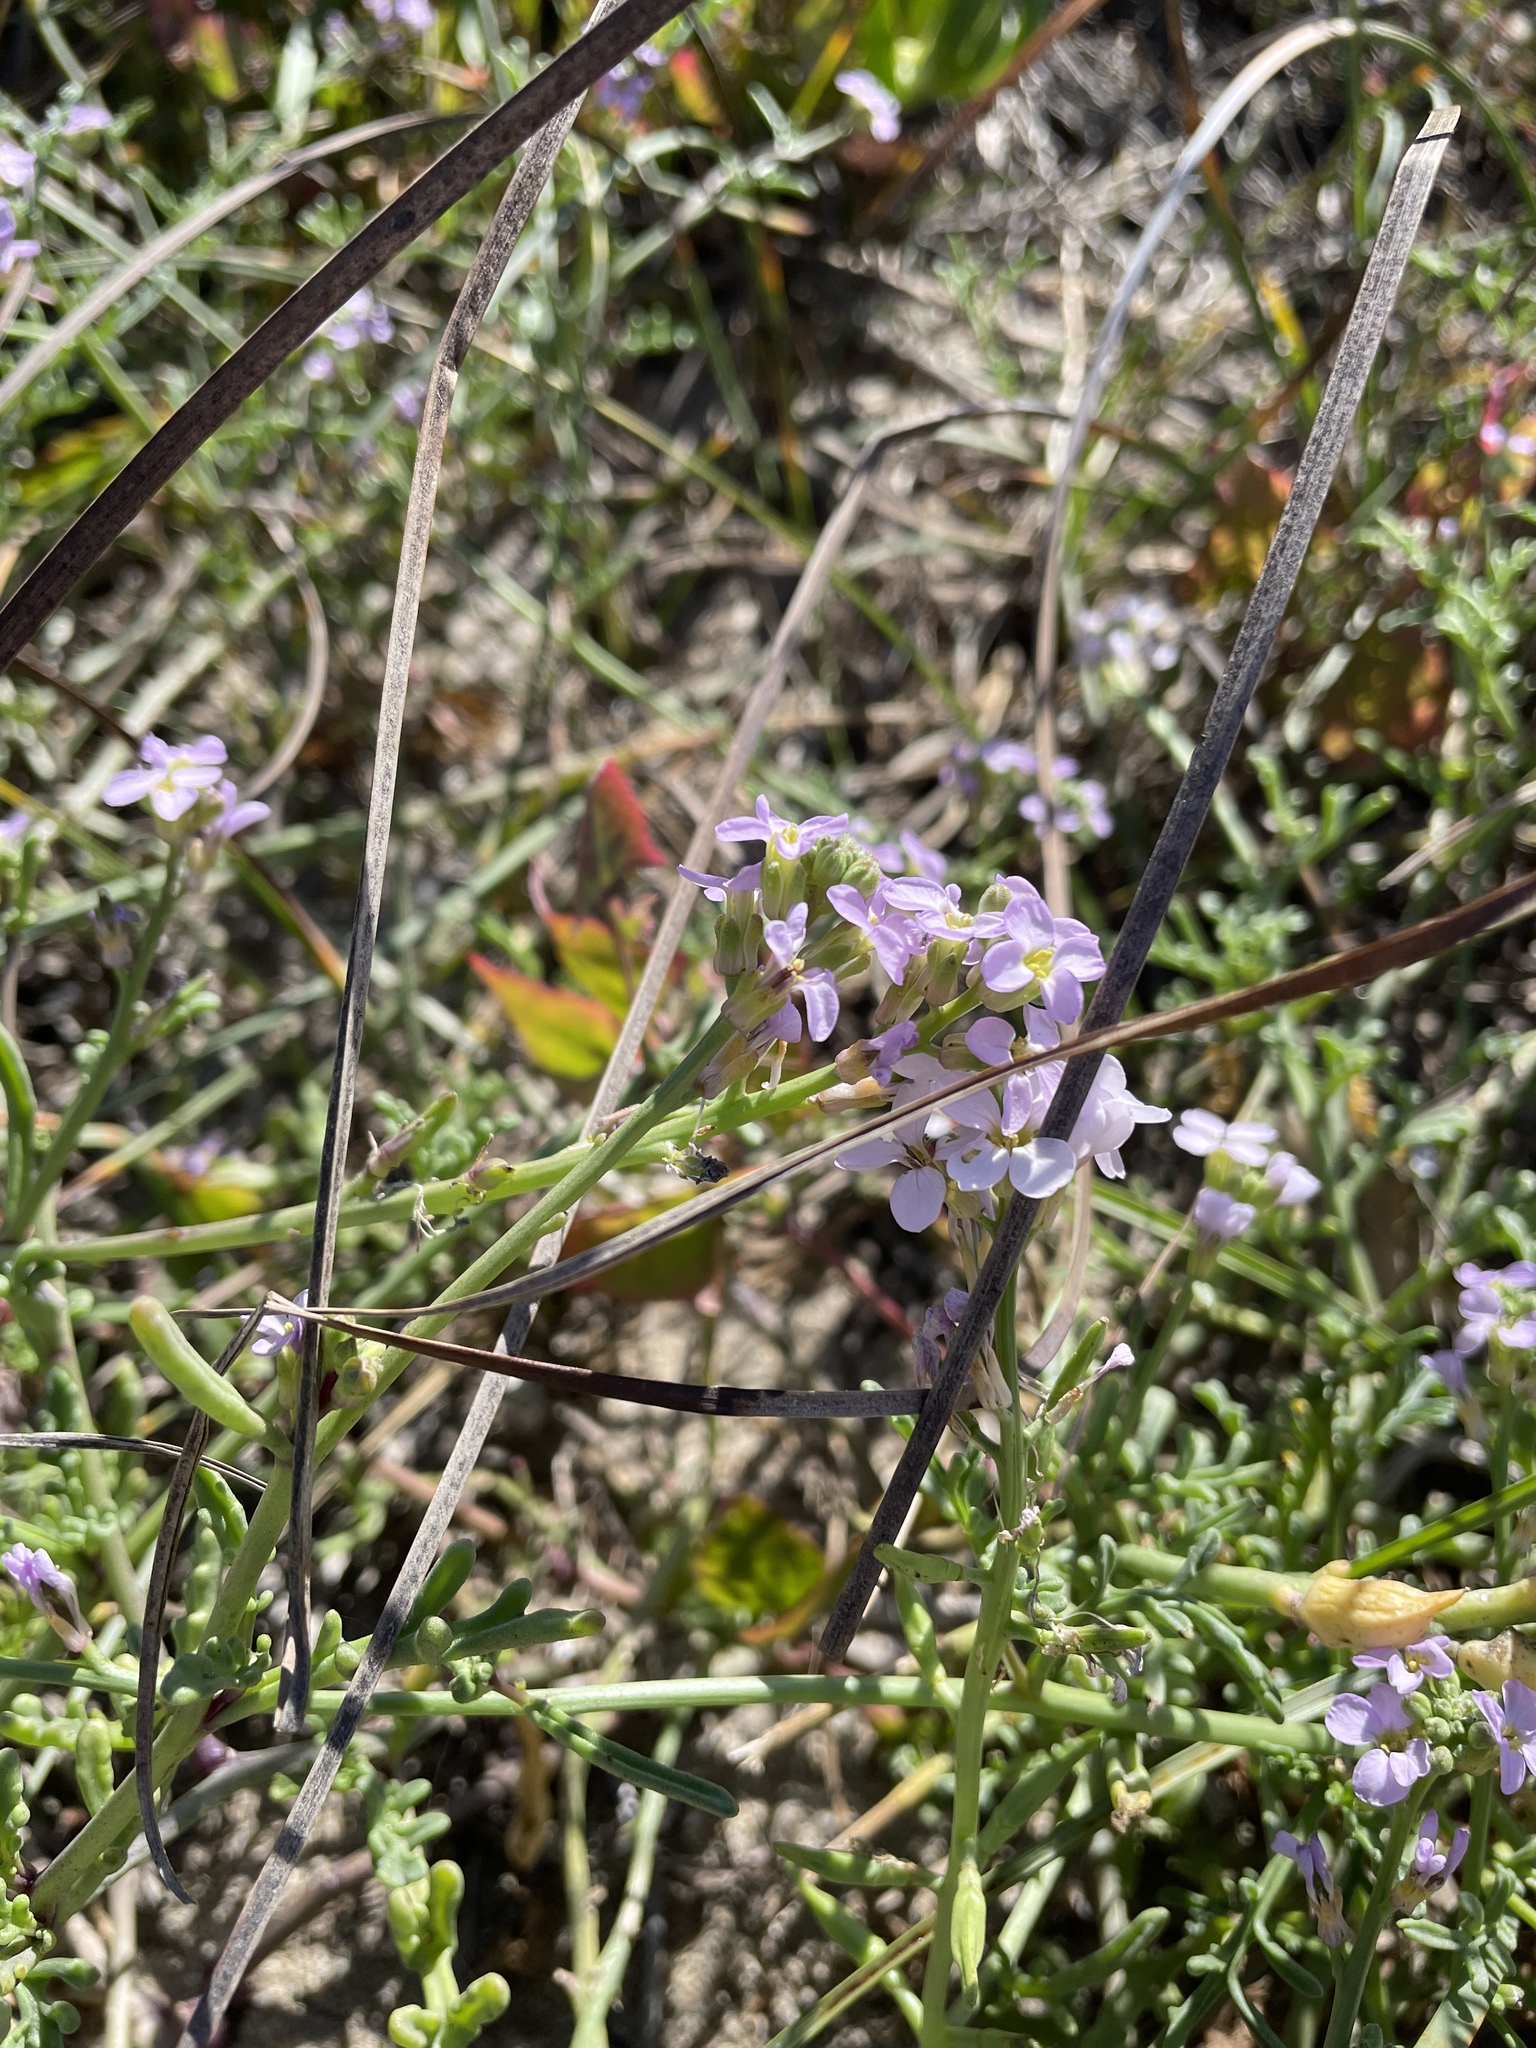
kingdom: Plantae
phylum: Tracheophyta
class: Magnoliopsida
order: Brassicales
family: Brassicaceae
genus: Cakile
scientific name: Cakile maritima
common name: Sea rocket
